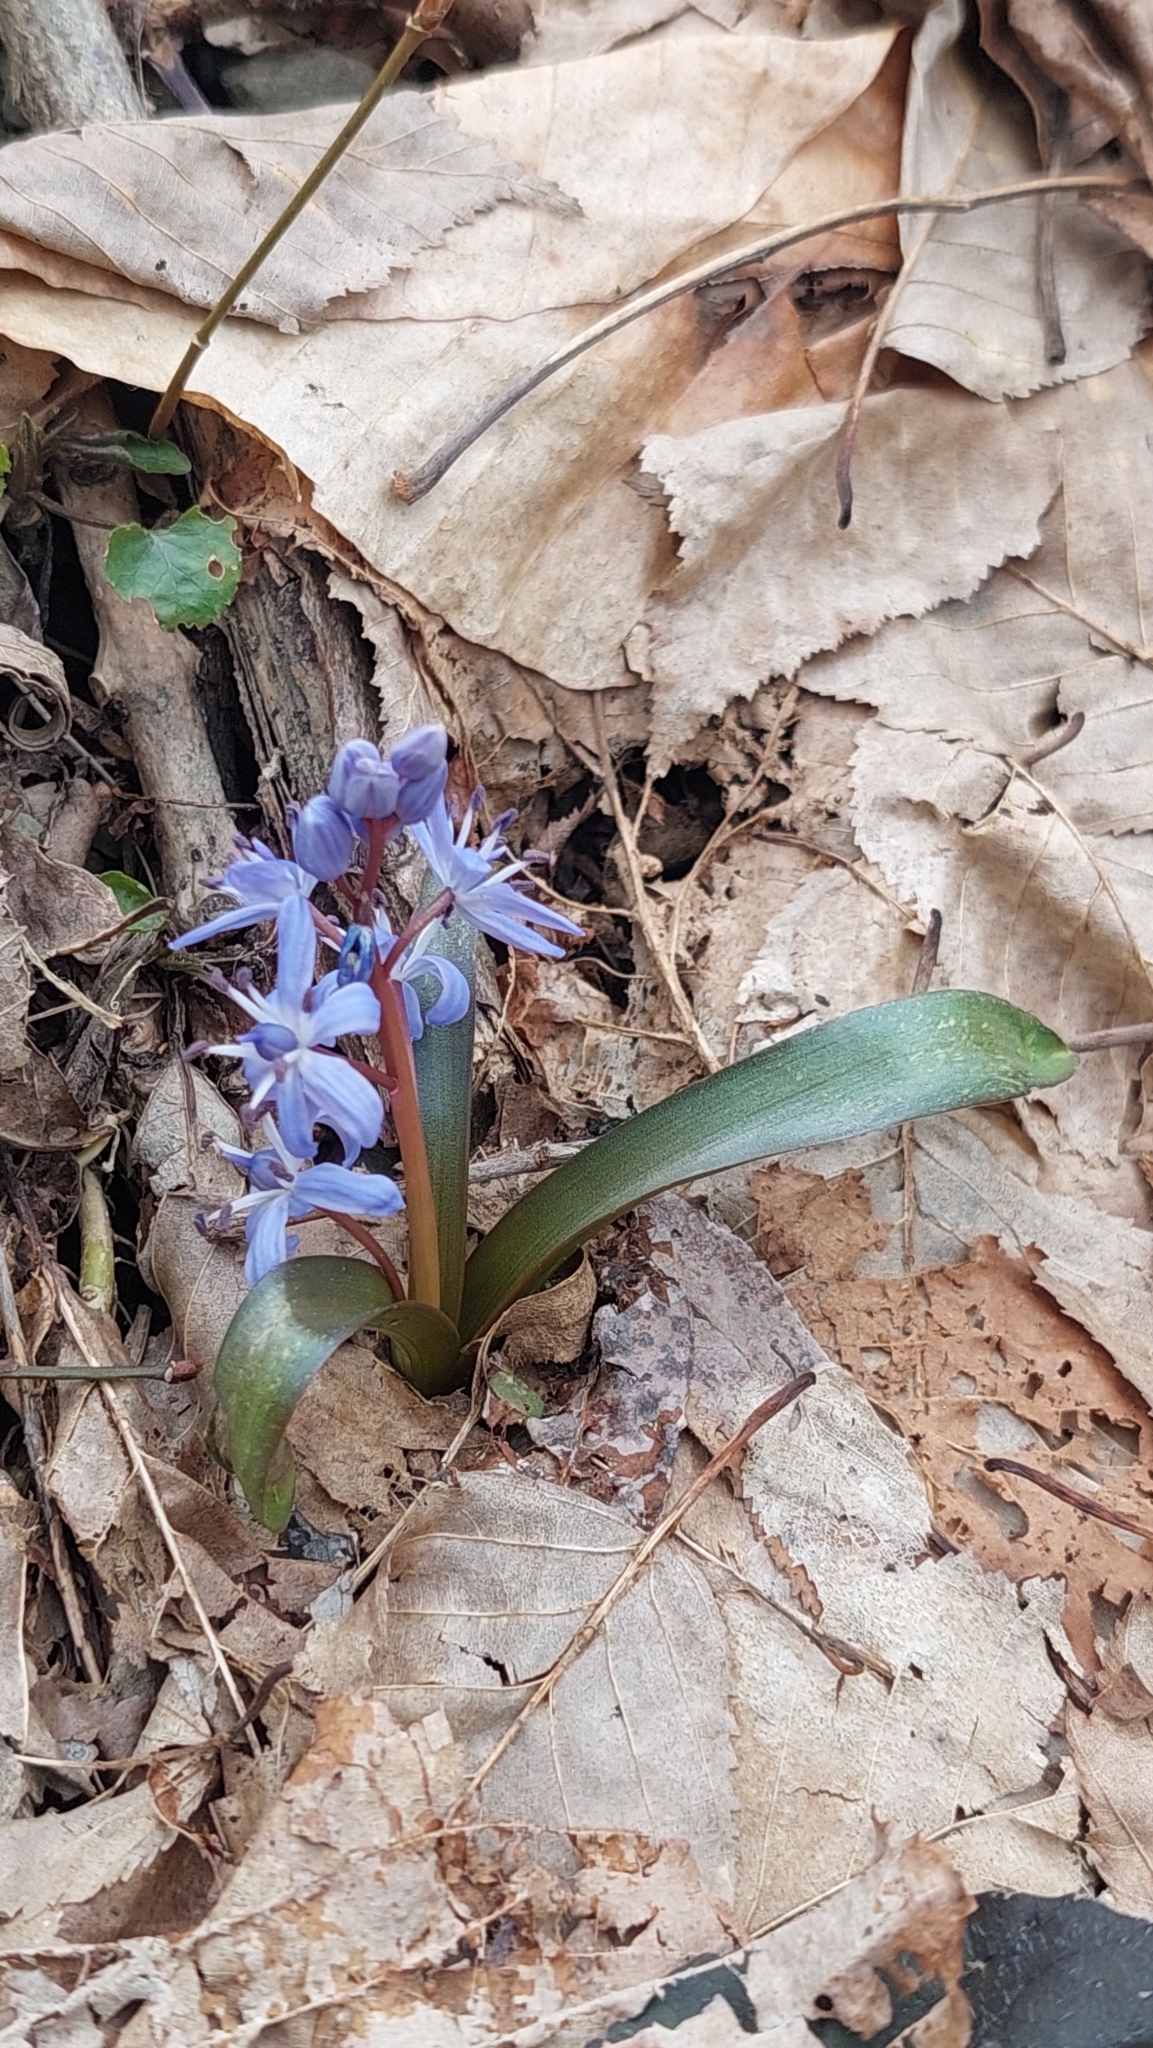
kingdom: Plantae
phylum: Tracheophyta
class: Liliopsida
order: Asparagales
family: Asparagaceae
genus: Scilla
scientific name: Scilla bifolia
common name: Alpine squill
